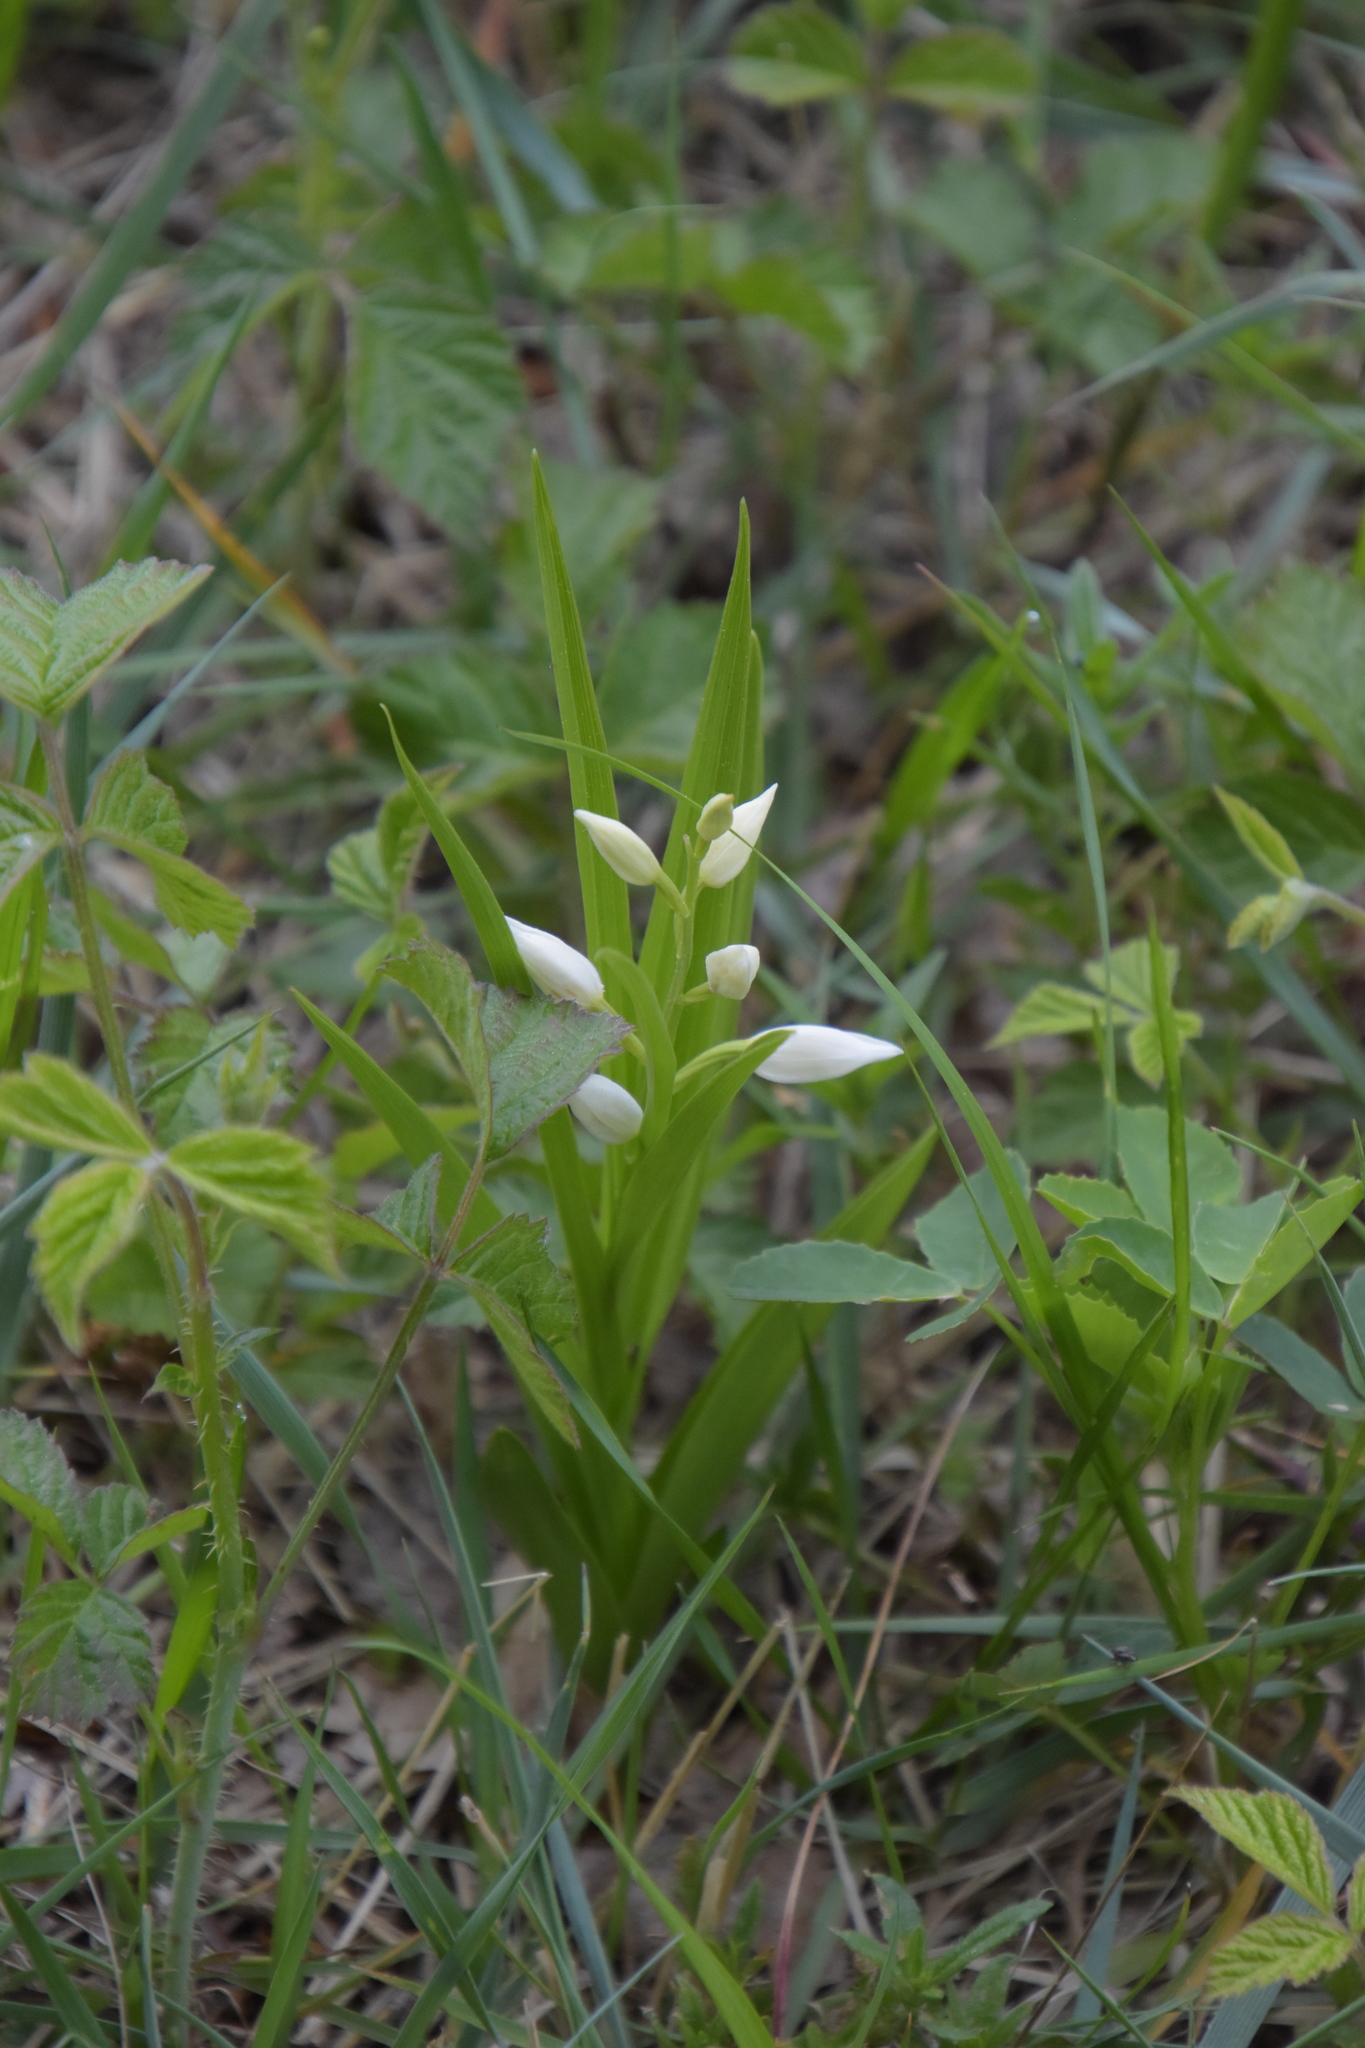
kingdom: Plantae
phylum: Tracheophyta
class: Liliopsida
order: Asparagales
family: Orchidaceae
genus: Cephalanthera
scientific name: Cephalanthera longifolia
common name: Narrow-leaved helleborine
